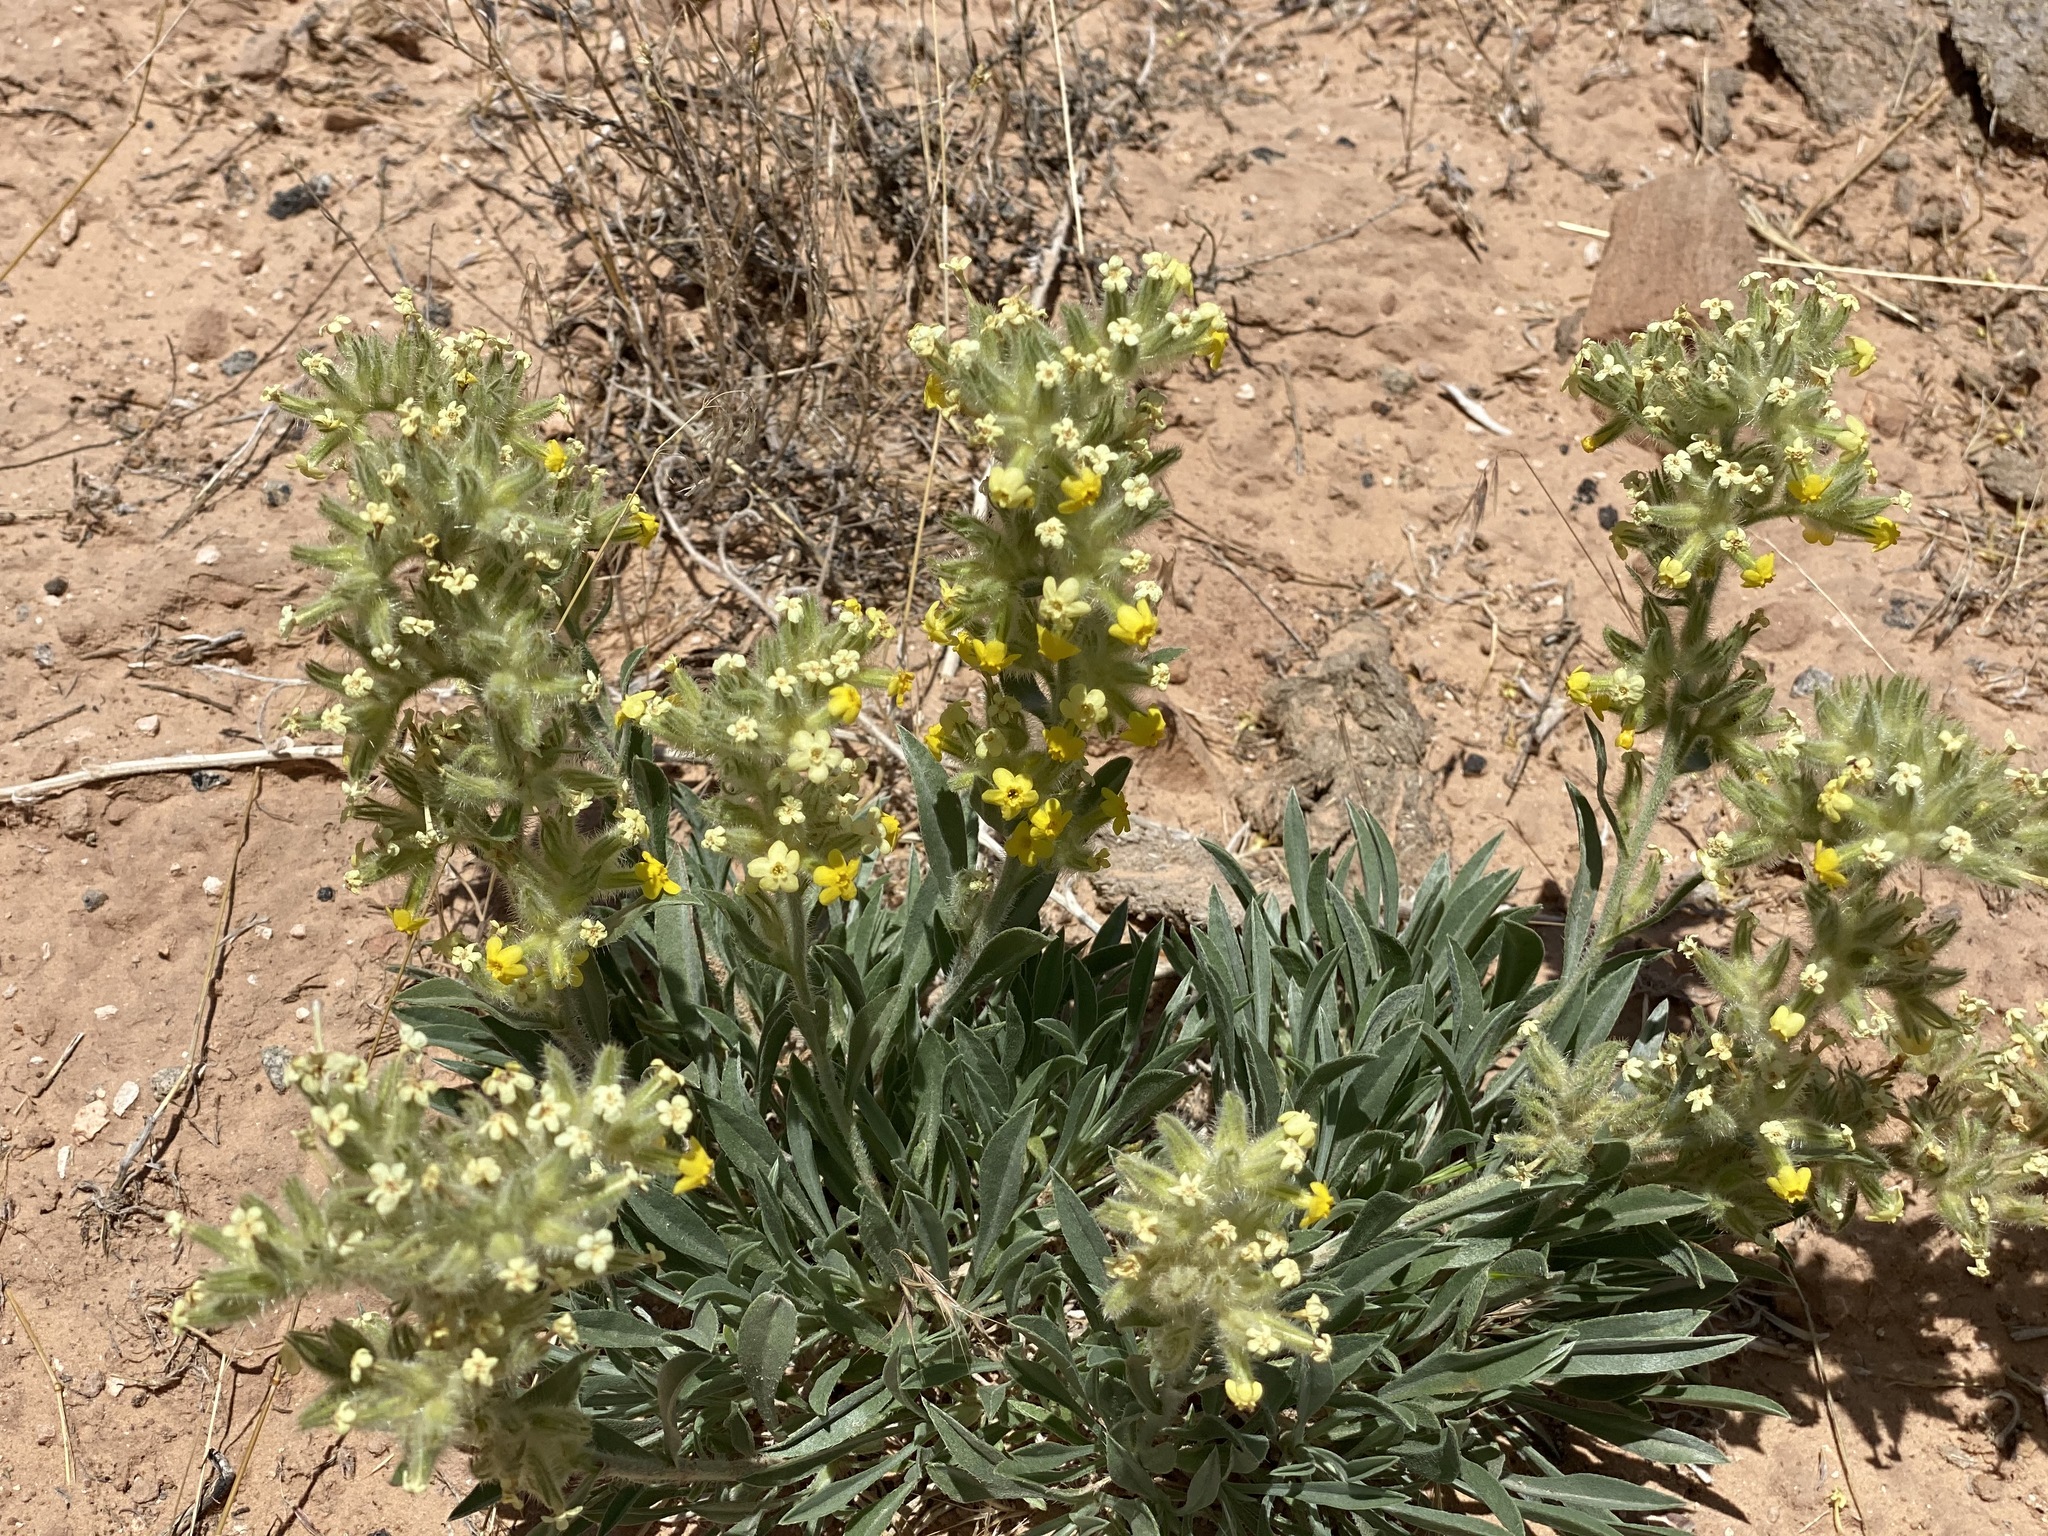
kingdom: Plantae
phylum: Tracheophyta
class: Magnoliopsida
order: Boraginales
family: Boraginaceae
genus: Oreocarya
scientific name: Oreocarya flava
